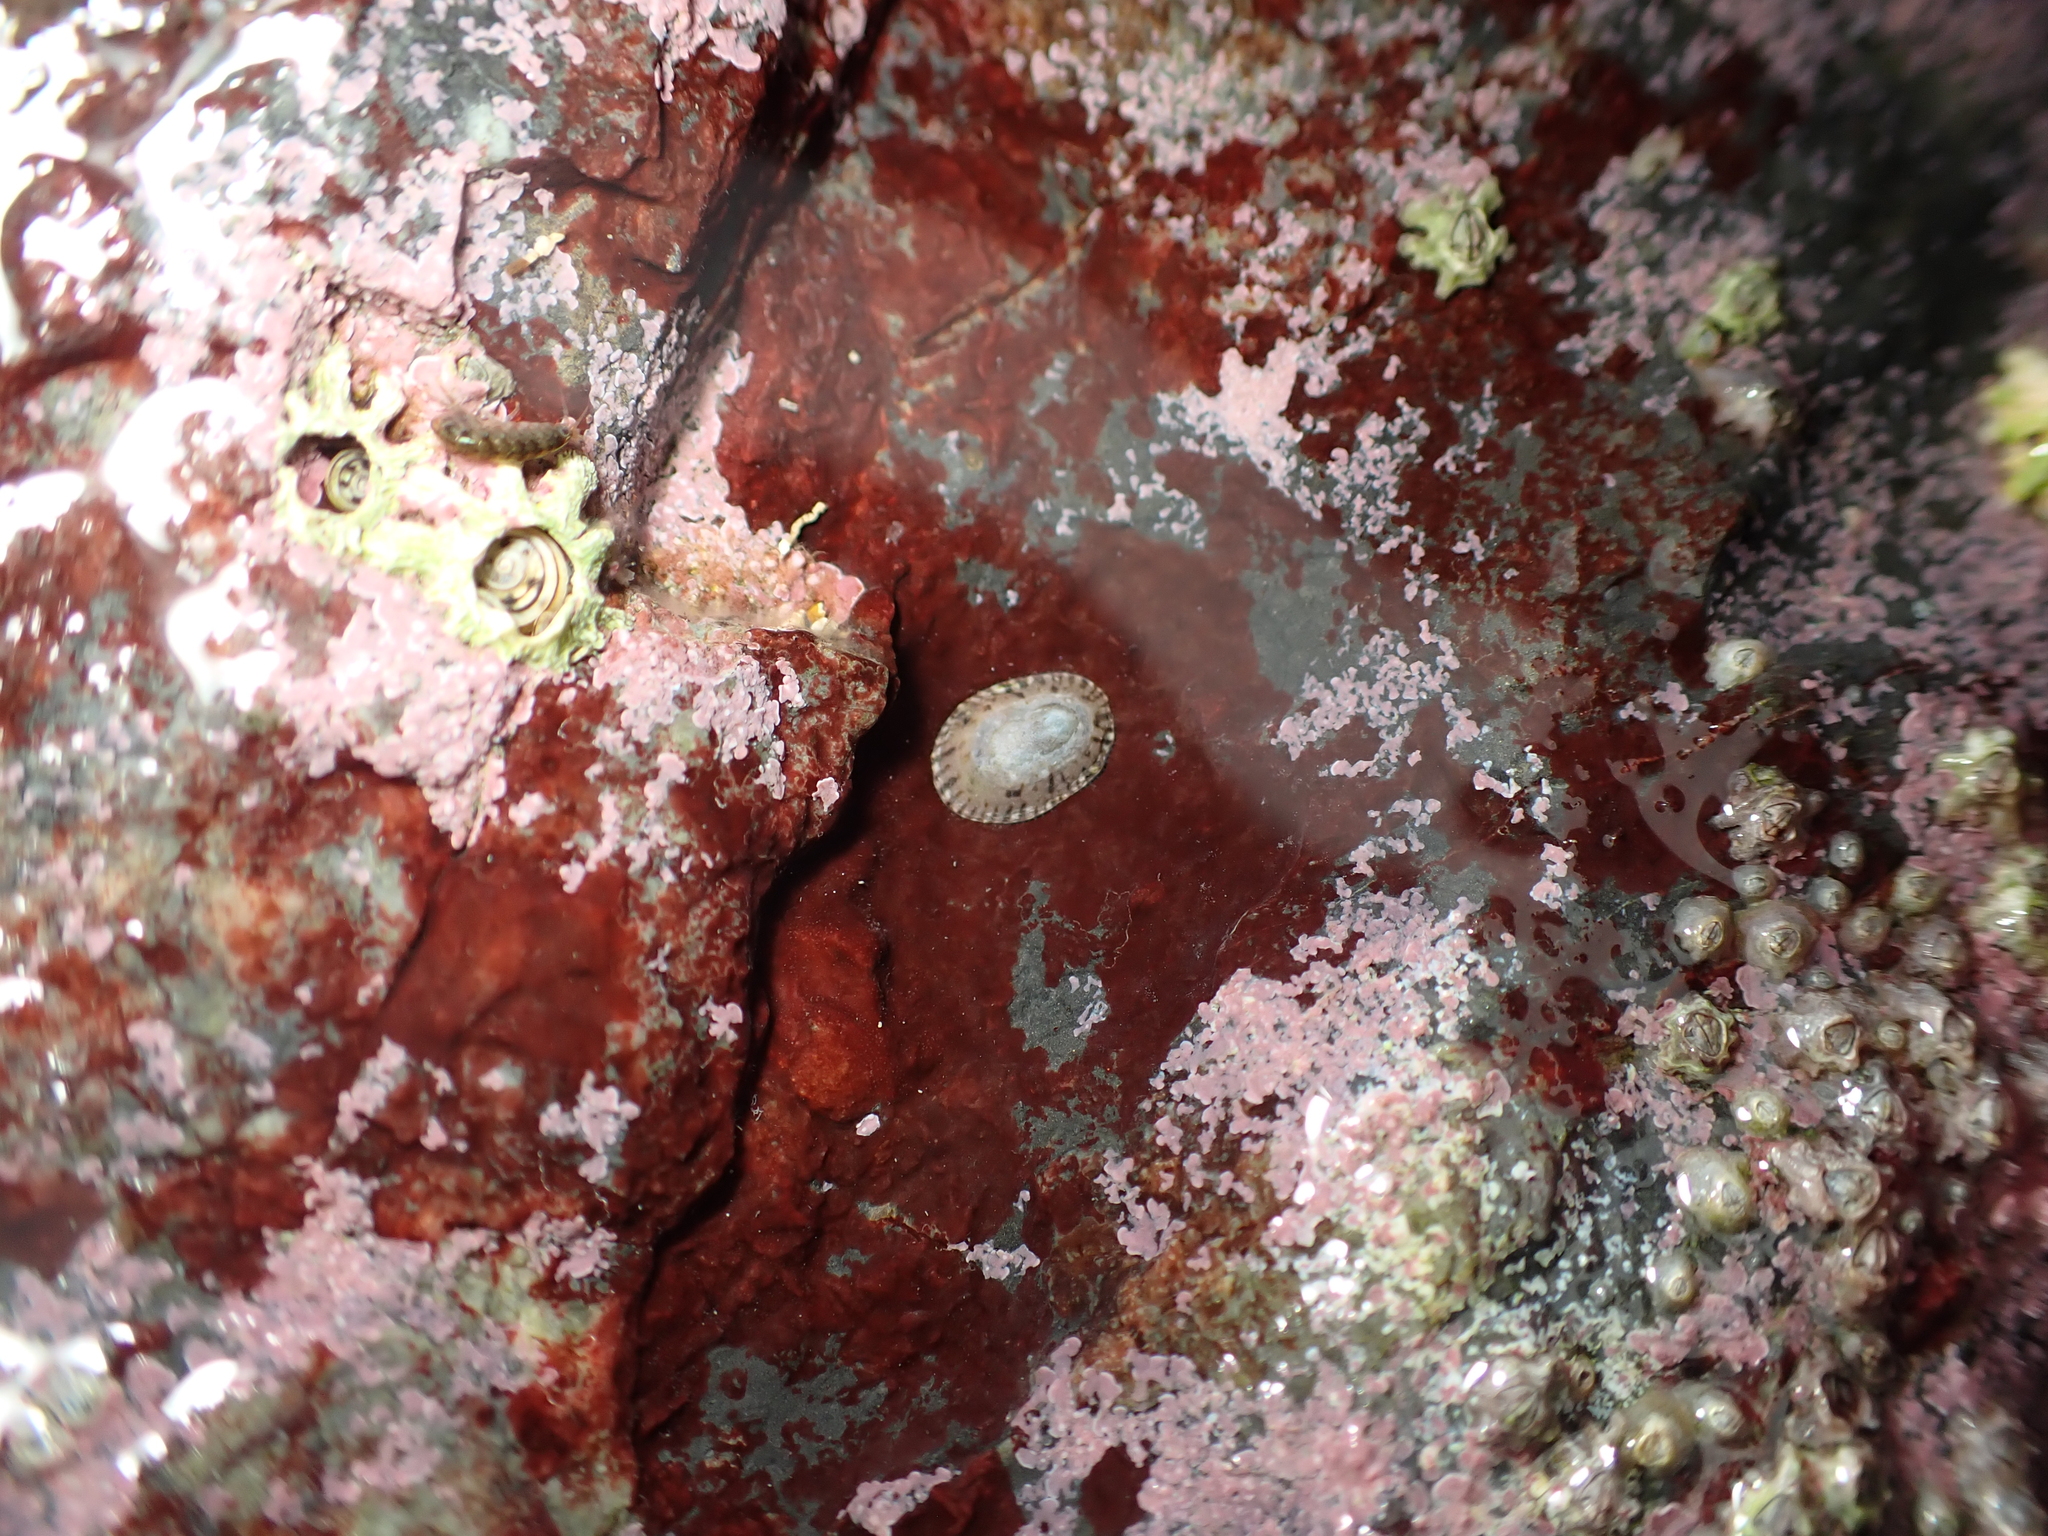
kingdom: Animalia
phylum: Mollusca
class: Gastropoda
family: Lottiidae
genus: Notoacmea
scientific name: Notoacmea turbatrix
